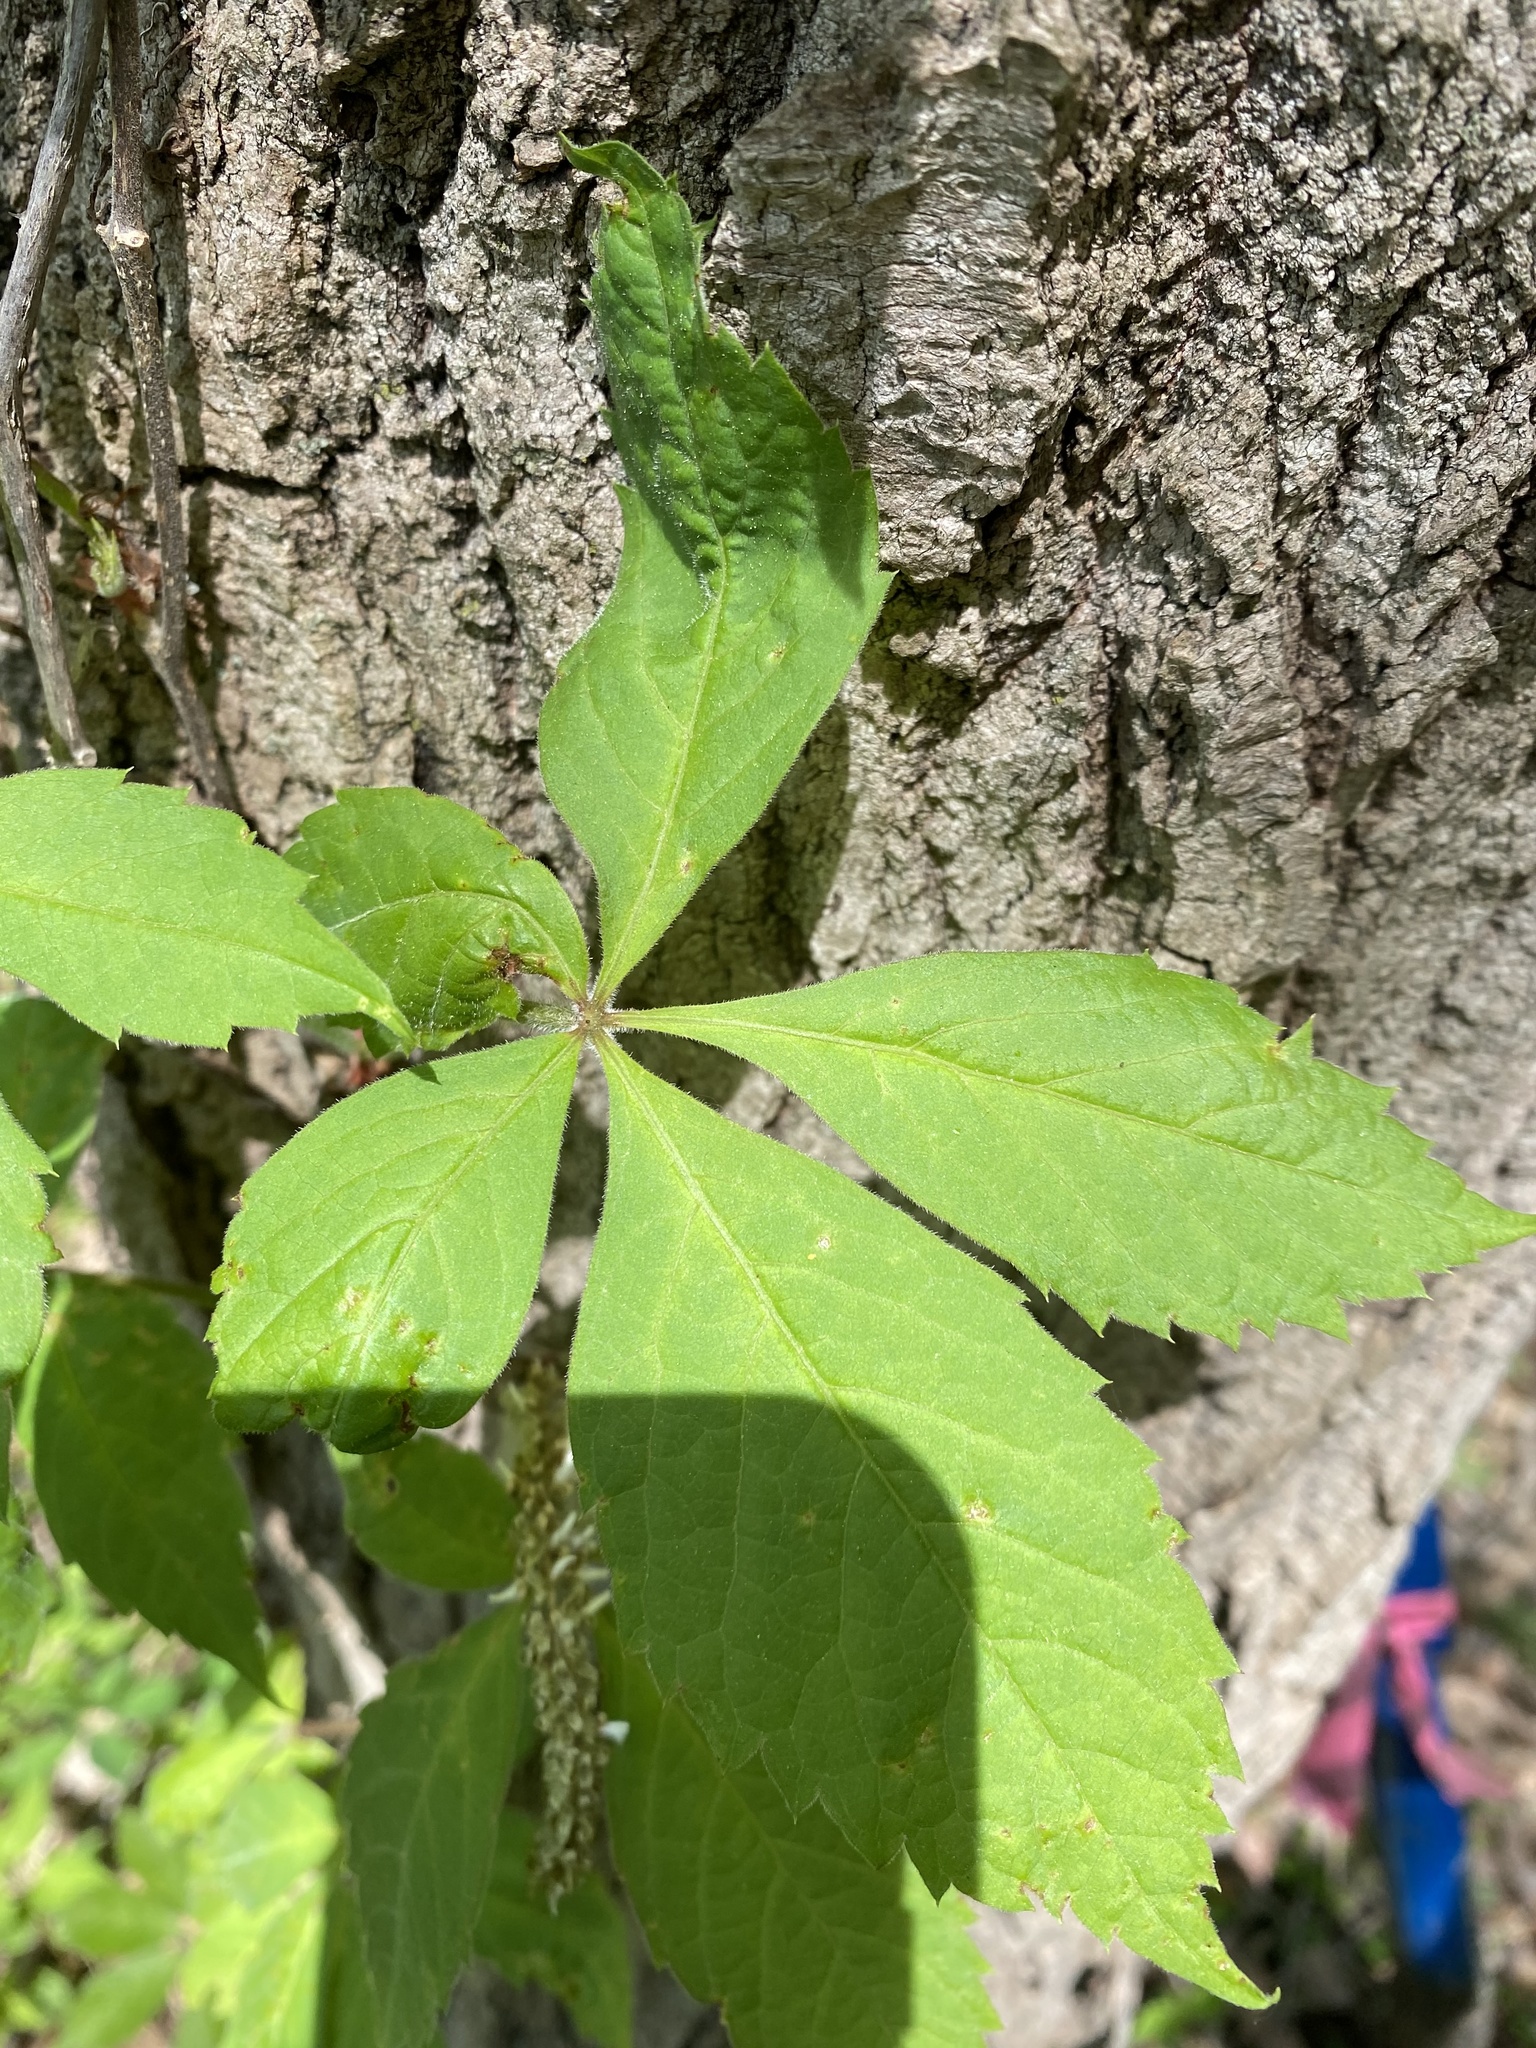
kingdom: Plantae
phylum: Tracheophyta
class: Magnoliopsida
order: Vitales
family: Vitaceae
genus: Parthenocissus
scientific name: Parthenocissus quinquefolia
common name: Virginia-creeper
